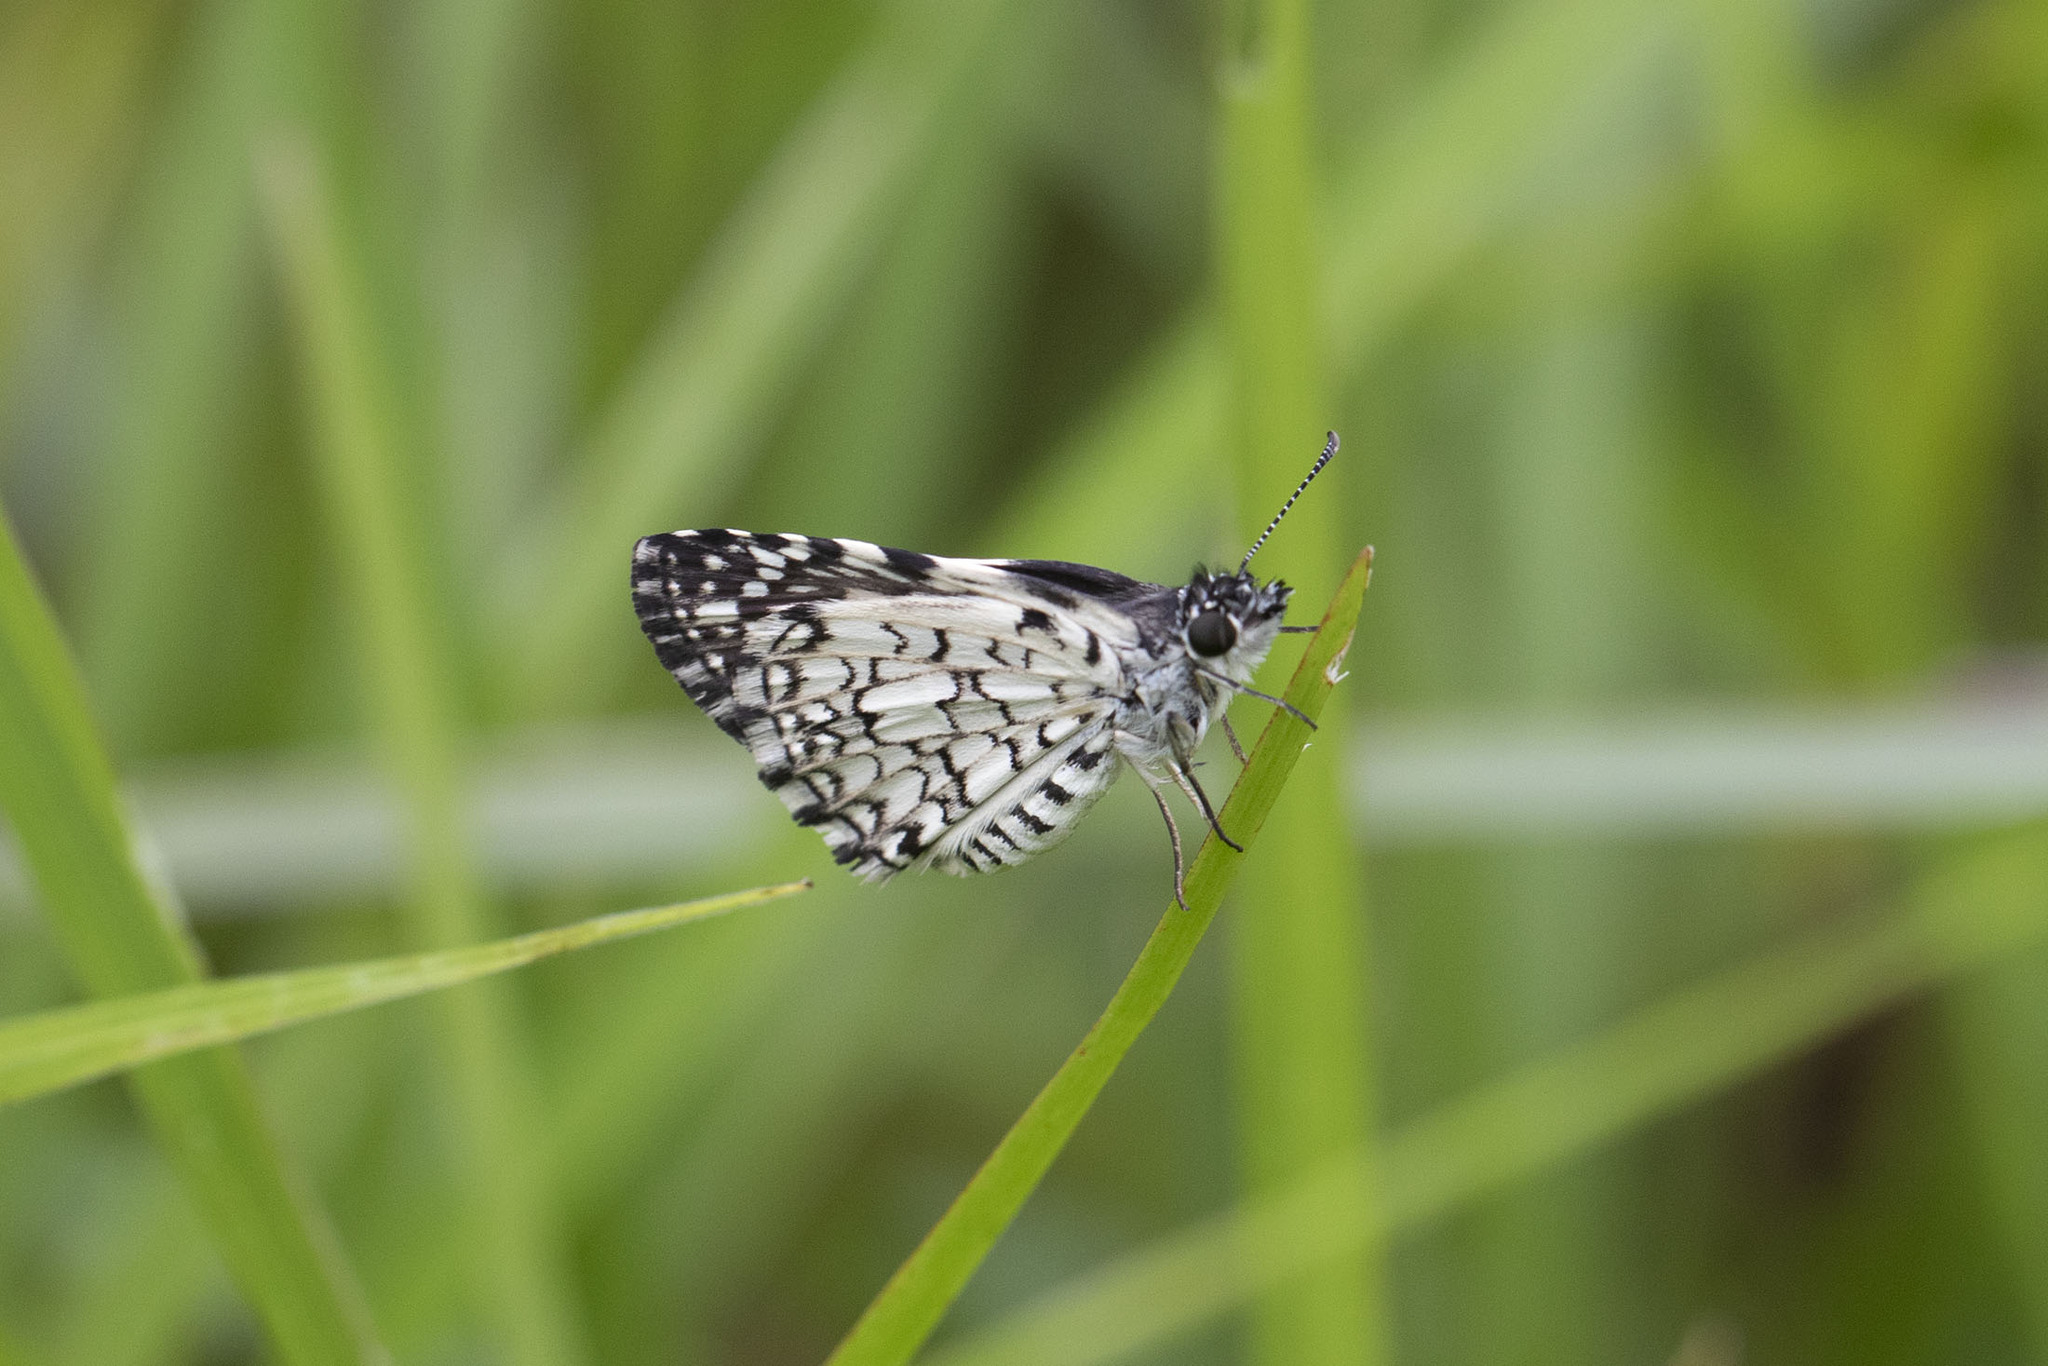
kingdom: Animalia
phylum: Arthropoda
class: Insecta
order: Lepidoptera
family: Hesperiidae
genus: Pyrgus
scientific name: Pyrgus oileus
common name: Tropical checkered-skipper
